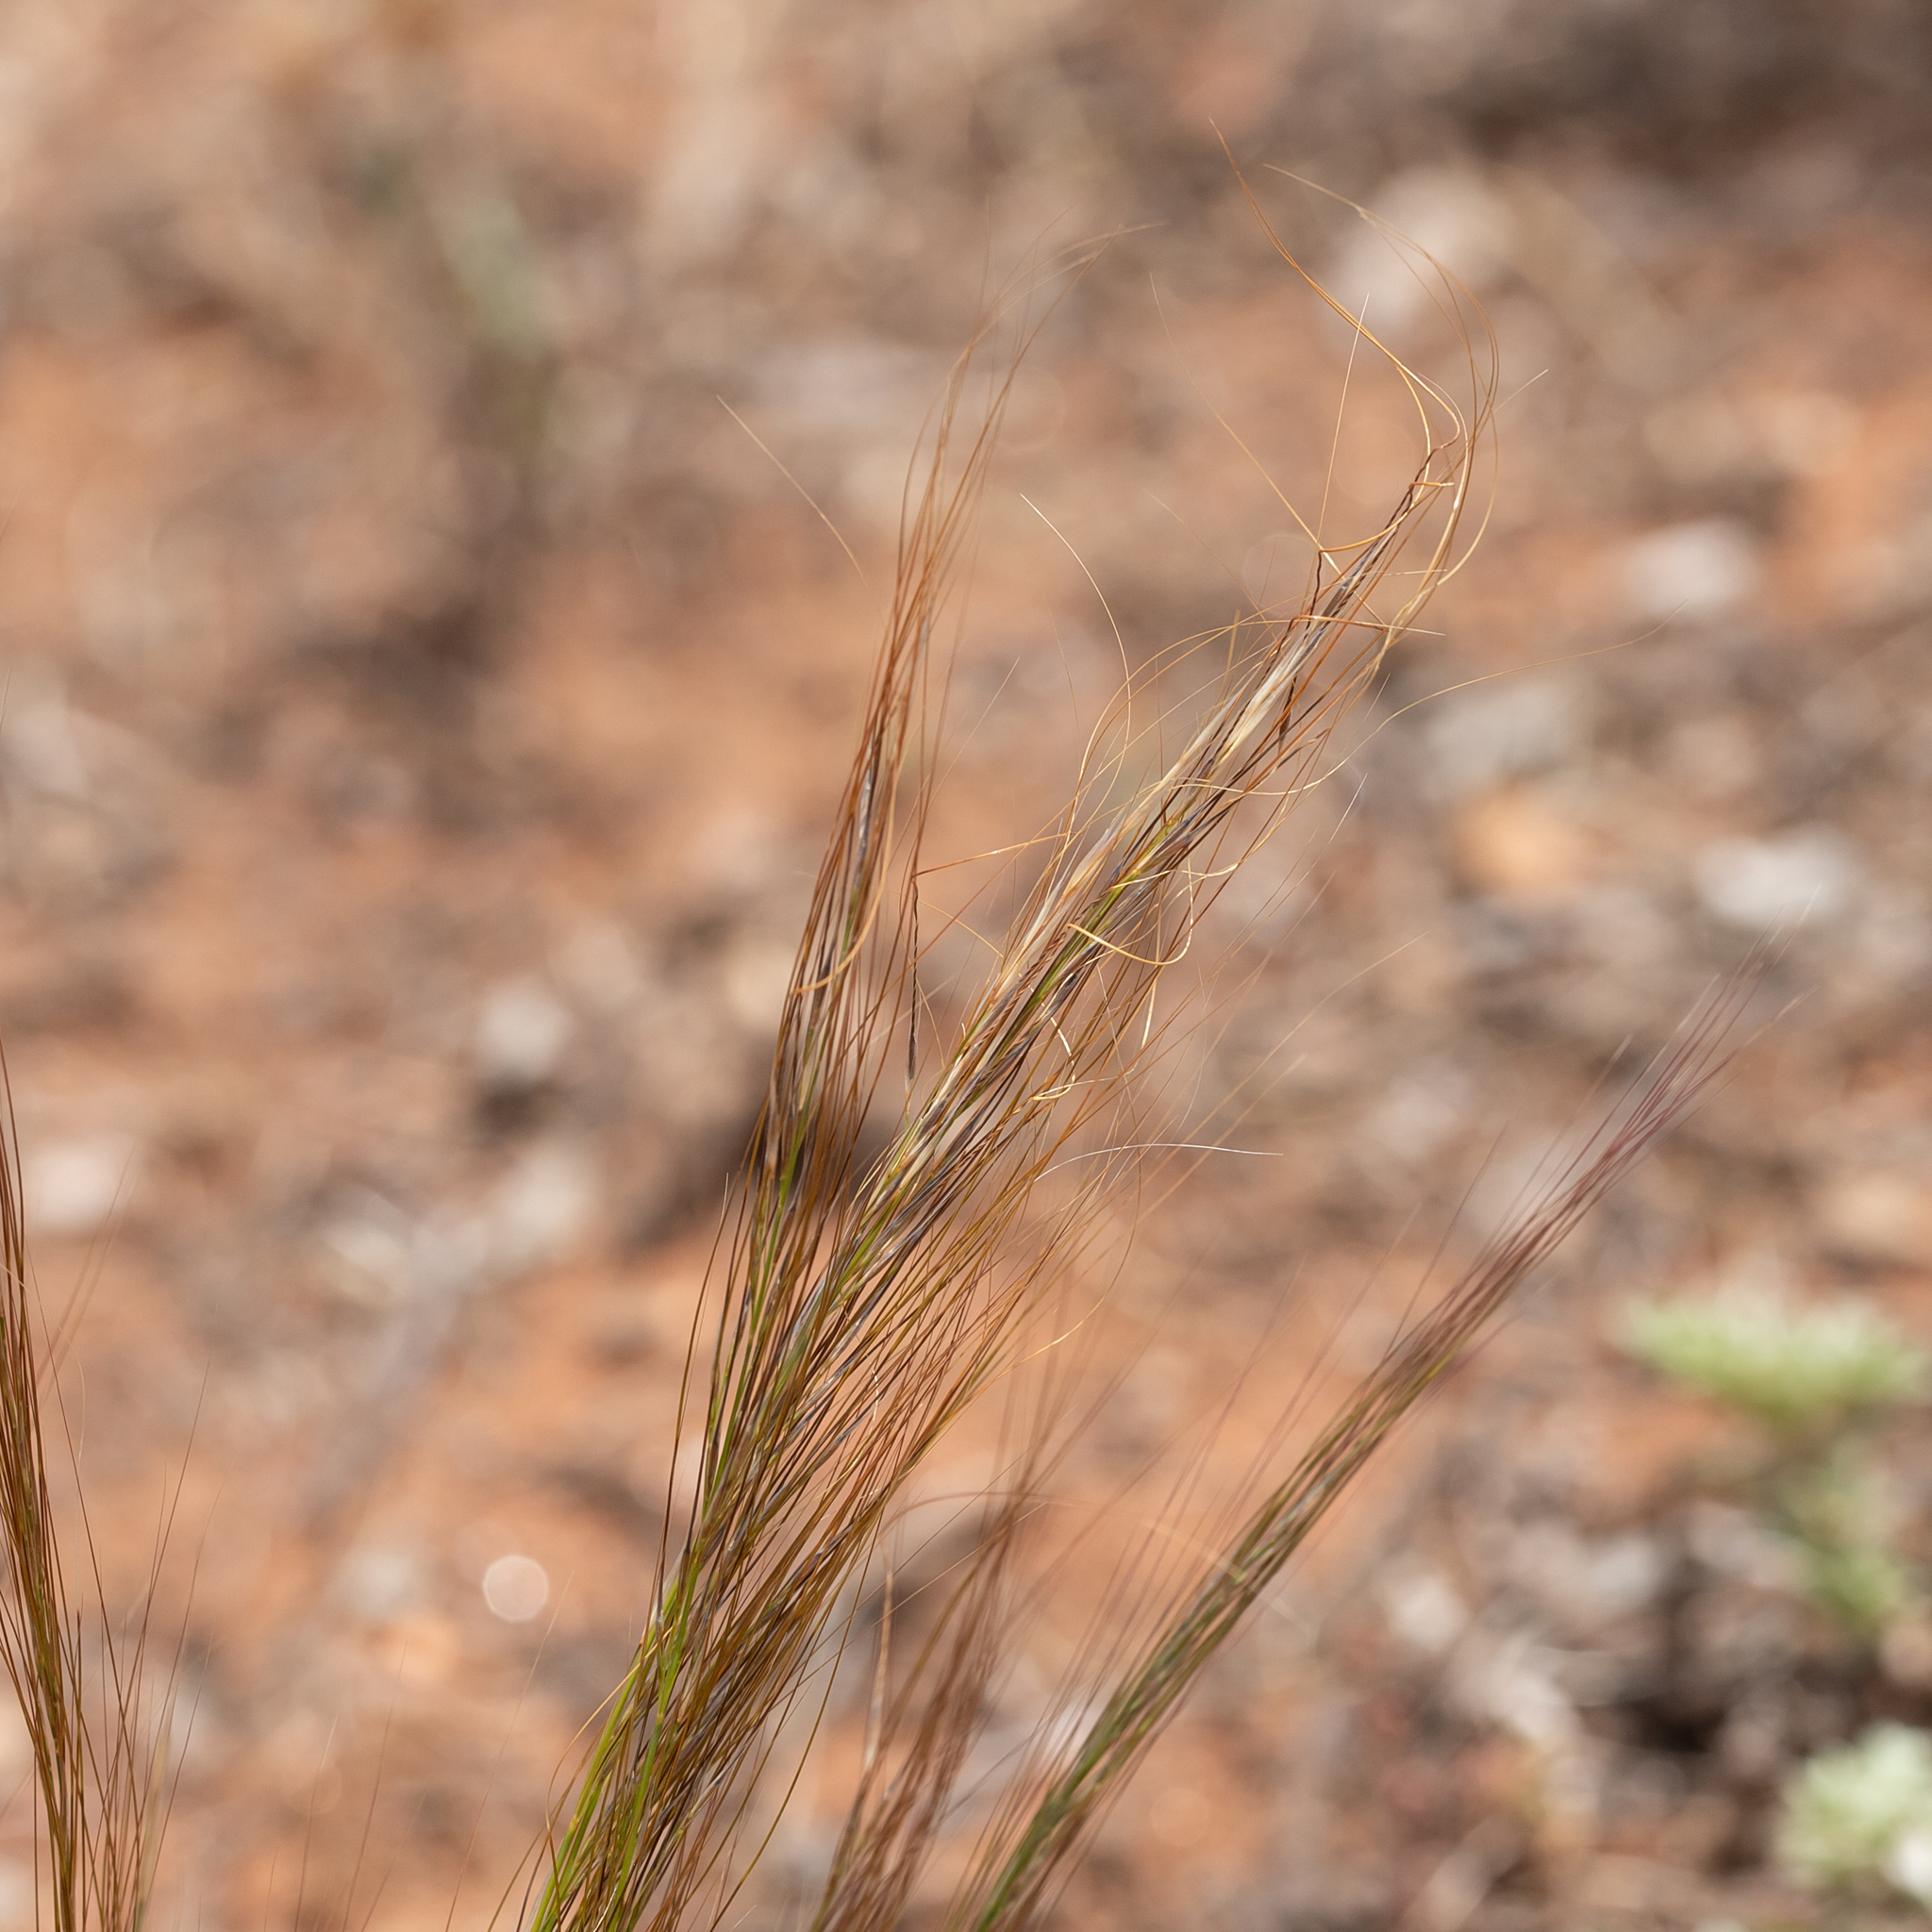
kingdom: Plantae
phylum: Tracheophyta
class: Liliopsida
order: Poales
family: Poaceae
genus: Austrostipa
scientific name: Austrostipa nitida
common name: Balcarra grass
